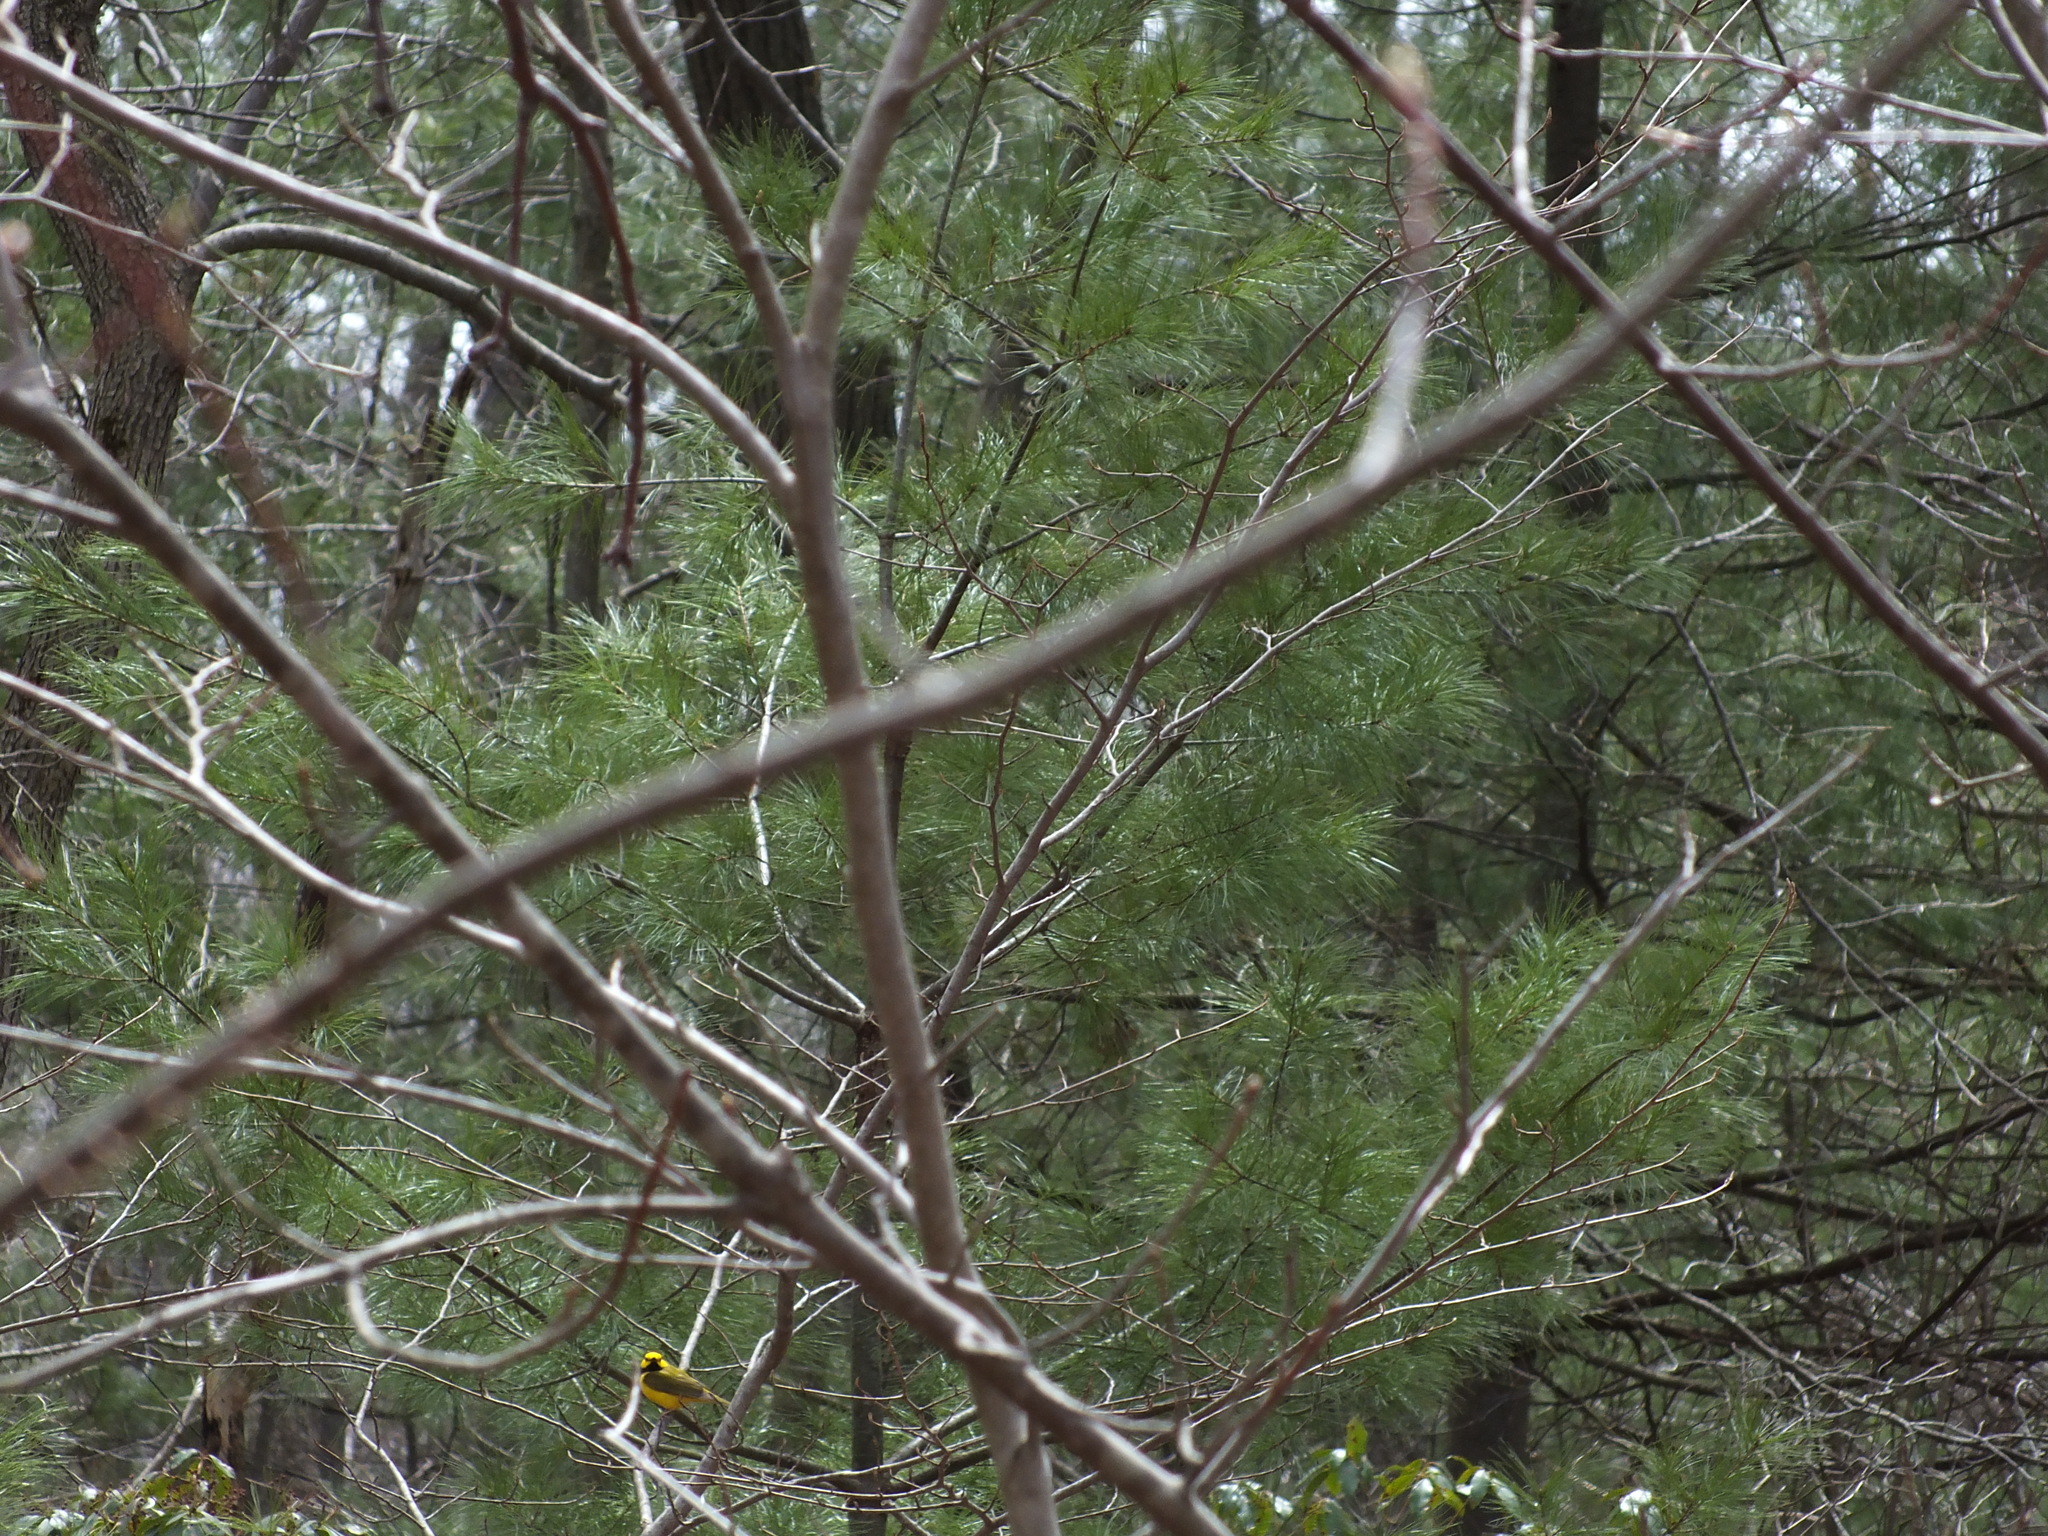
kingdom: Animalia
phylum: Chordata
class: Aves
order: Passeriformes
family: Parulidae
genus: Setophaga
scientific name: Setophaga citrina
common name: Hooded warbler
